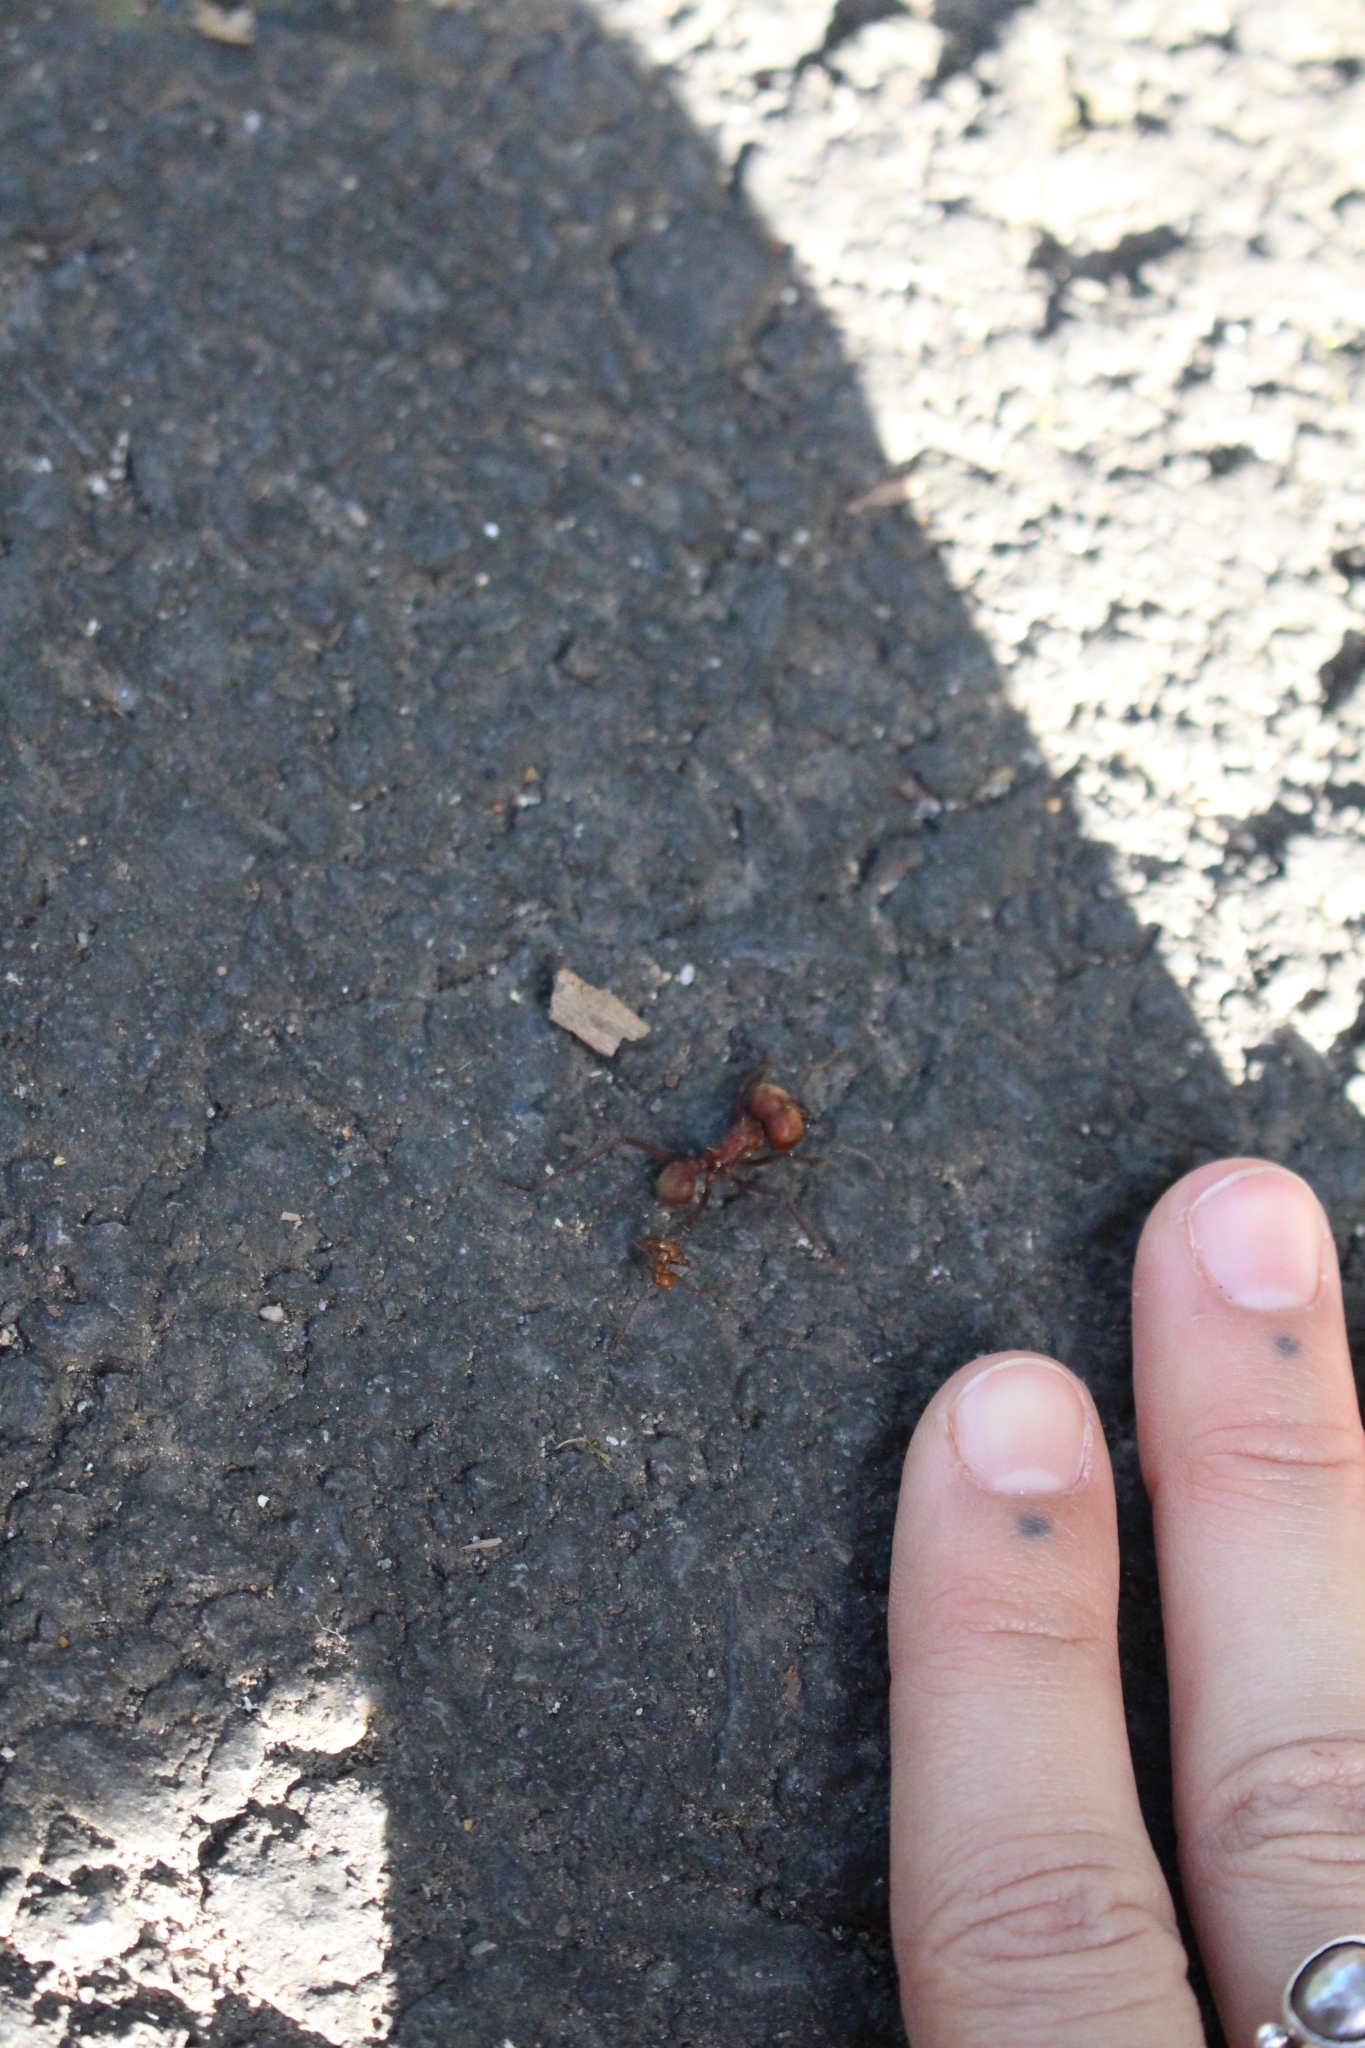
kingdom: Animalia
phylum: Arthropoda
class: Insecta
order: Hymenoptera
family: Formicidae
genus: Atta
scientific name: Atta cephalotes
